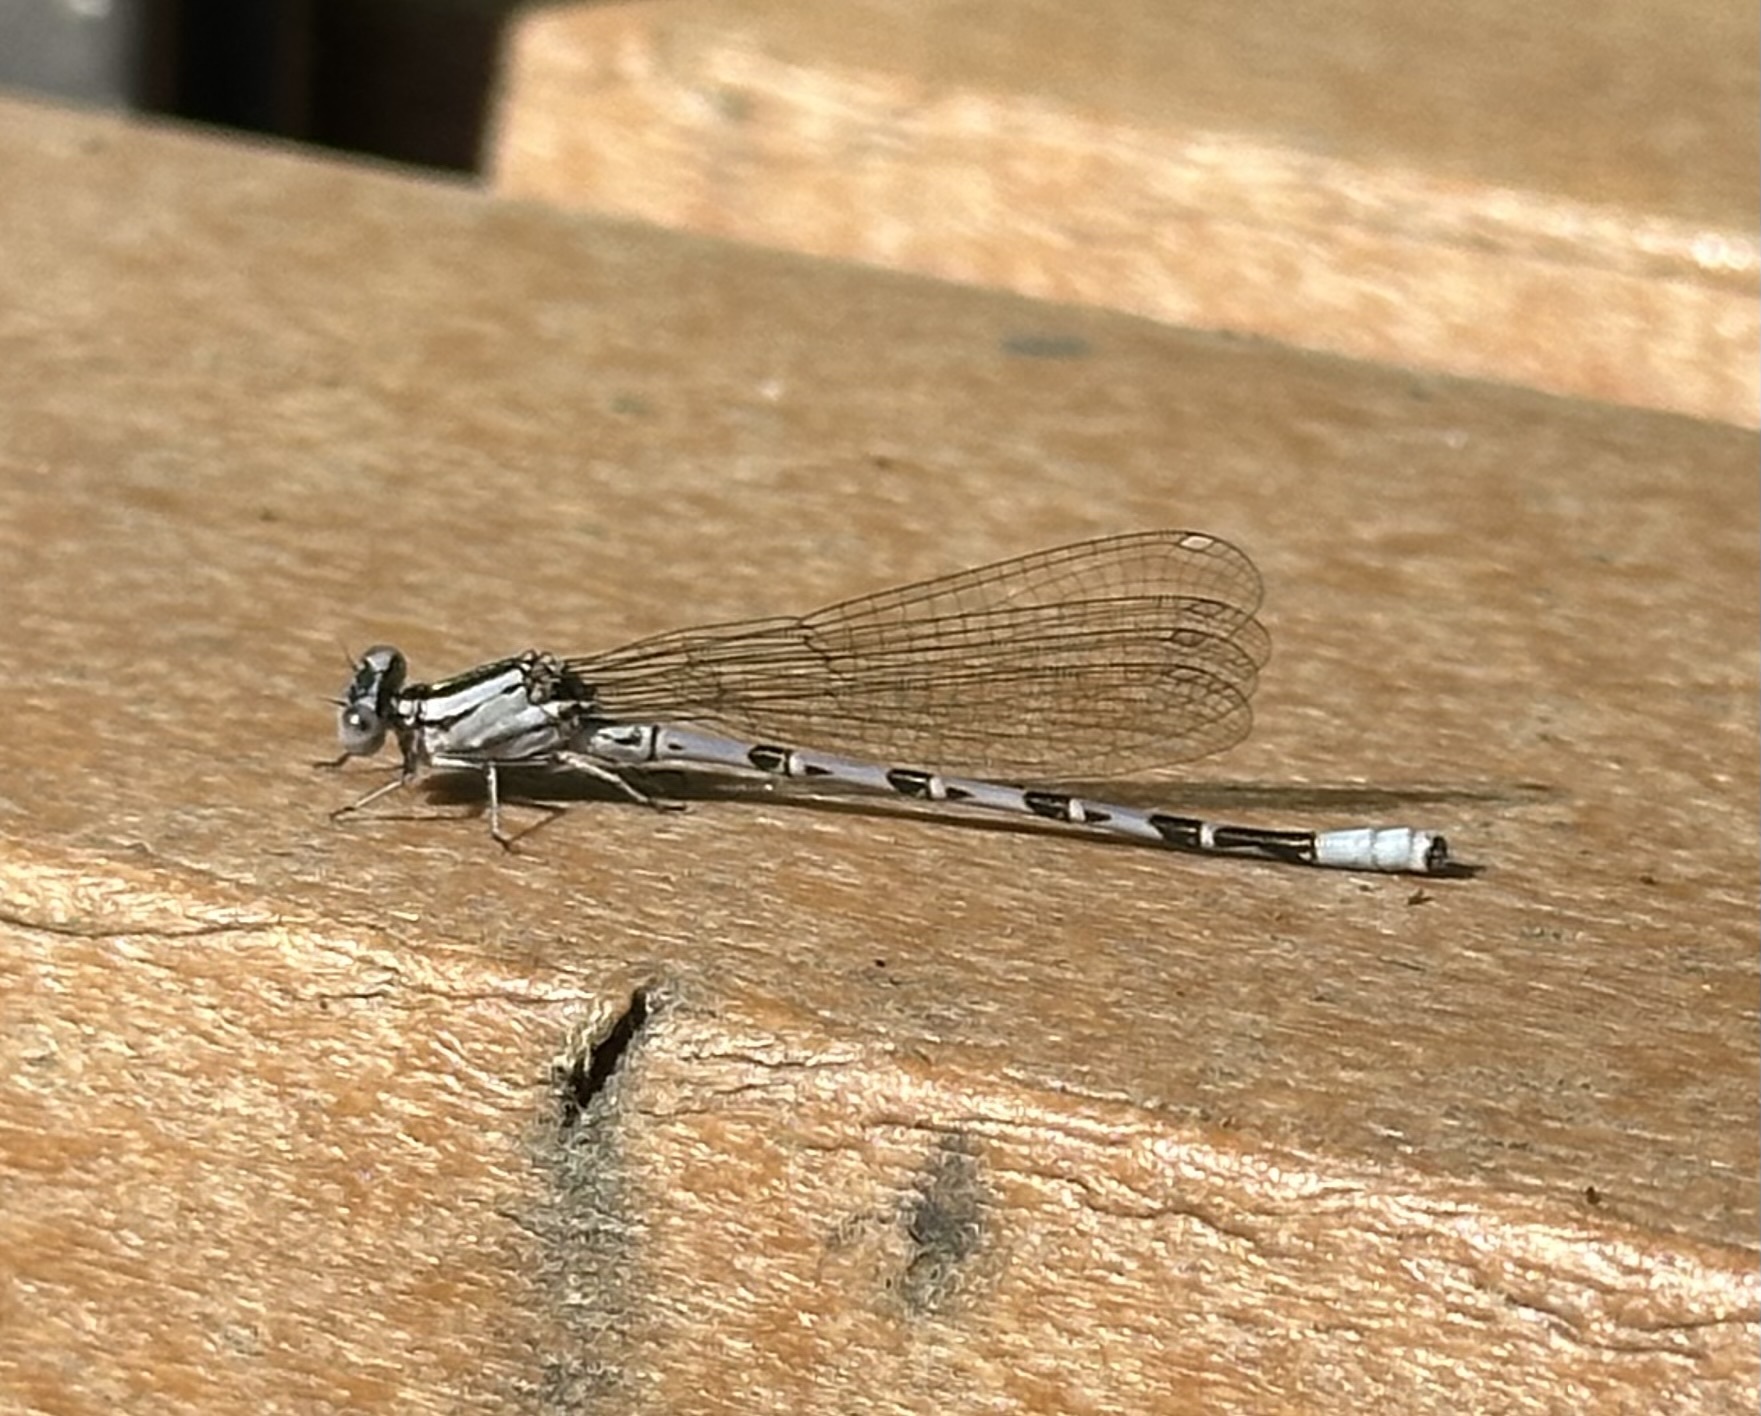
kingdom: Animalia
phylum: Arthropoda
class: Insecta
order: Odonata
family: Coenagrionidae
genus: Argia
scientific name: Argia vivida
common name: Vivid dancer
